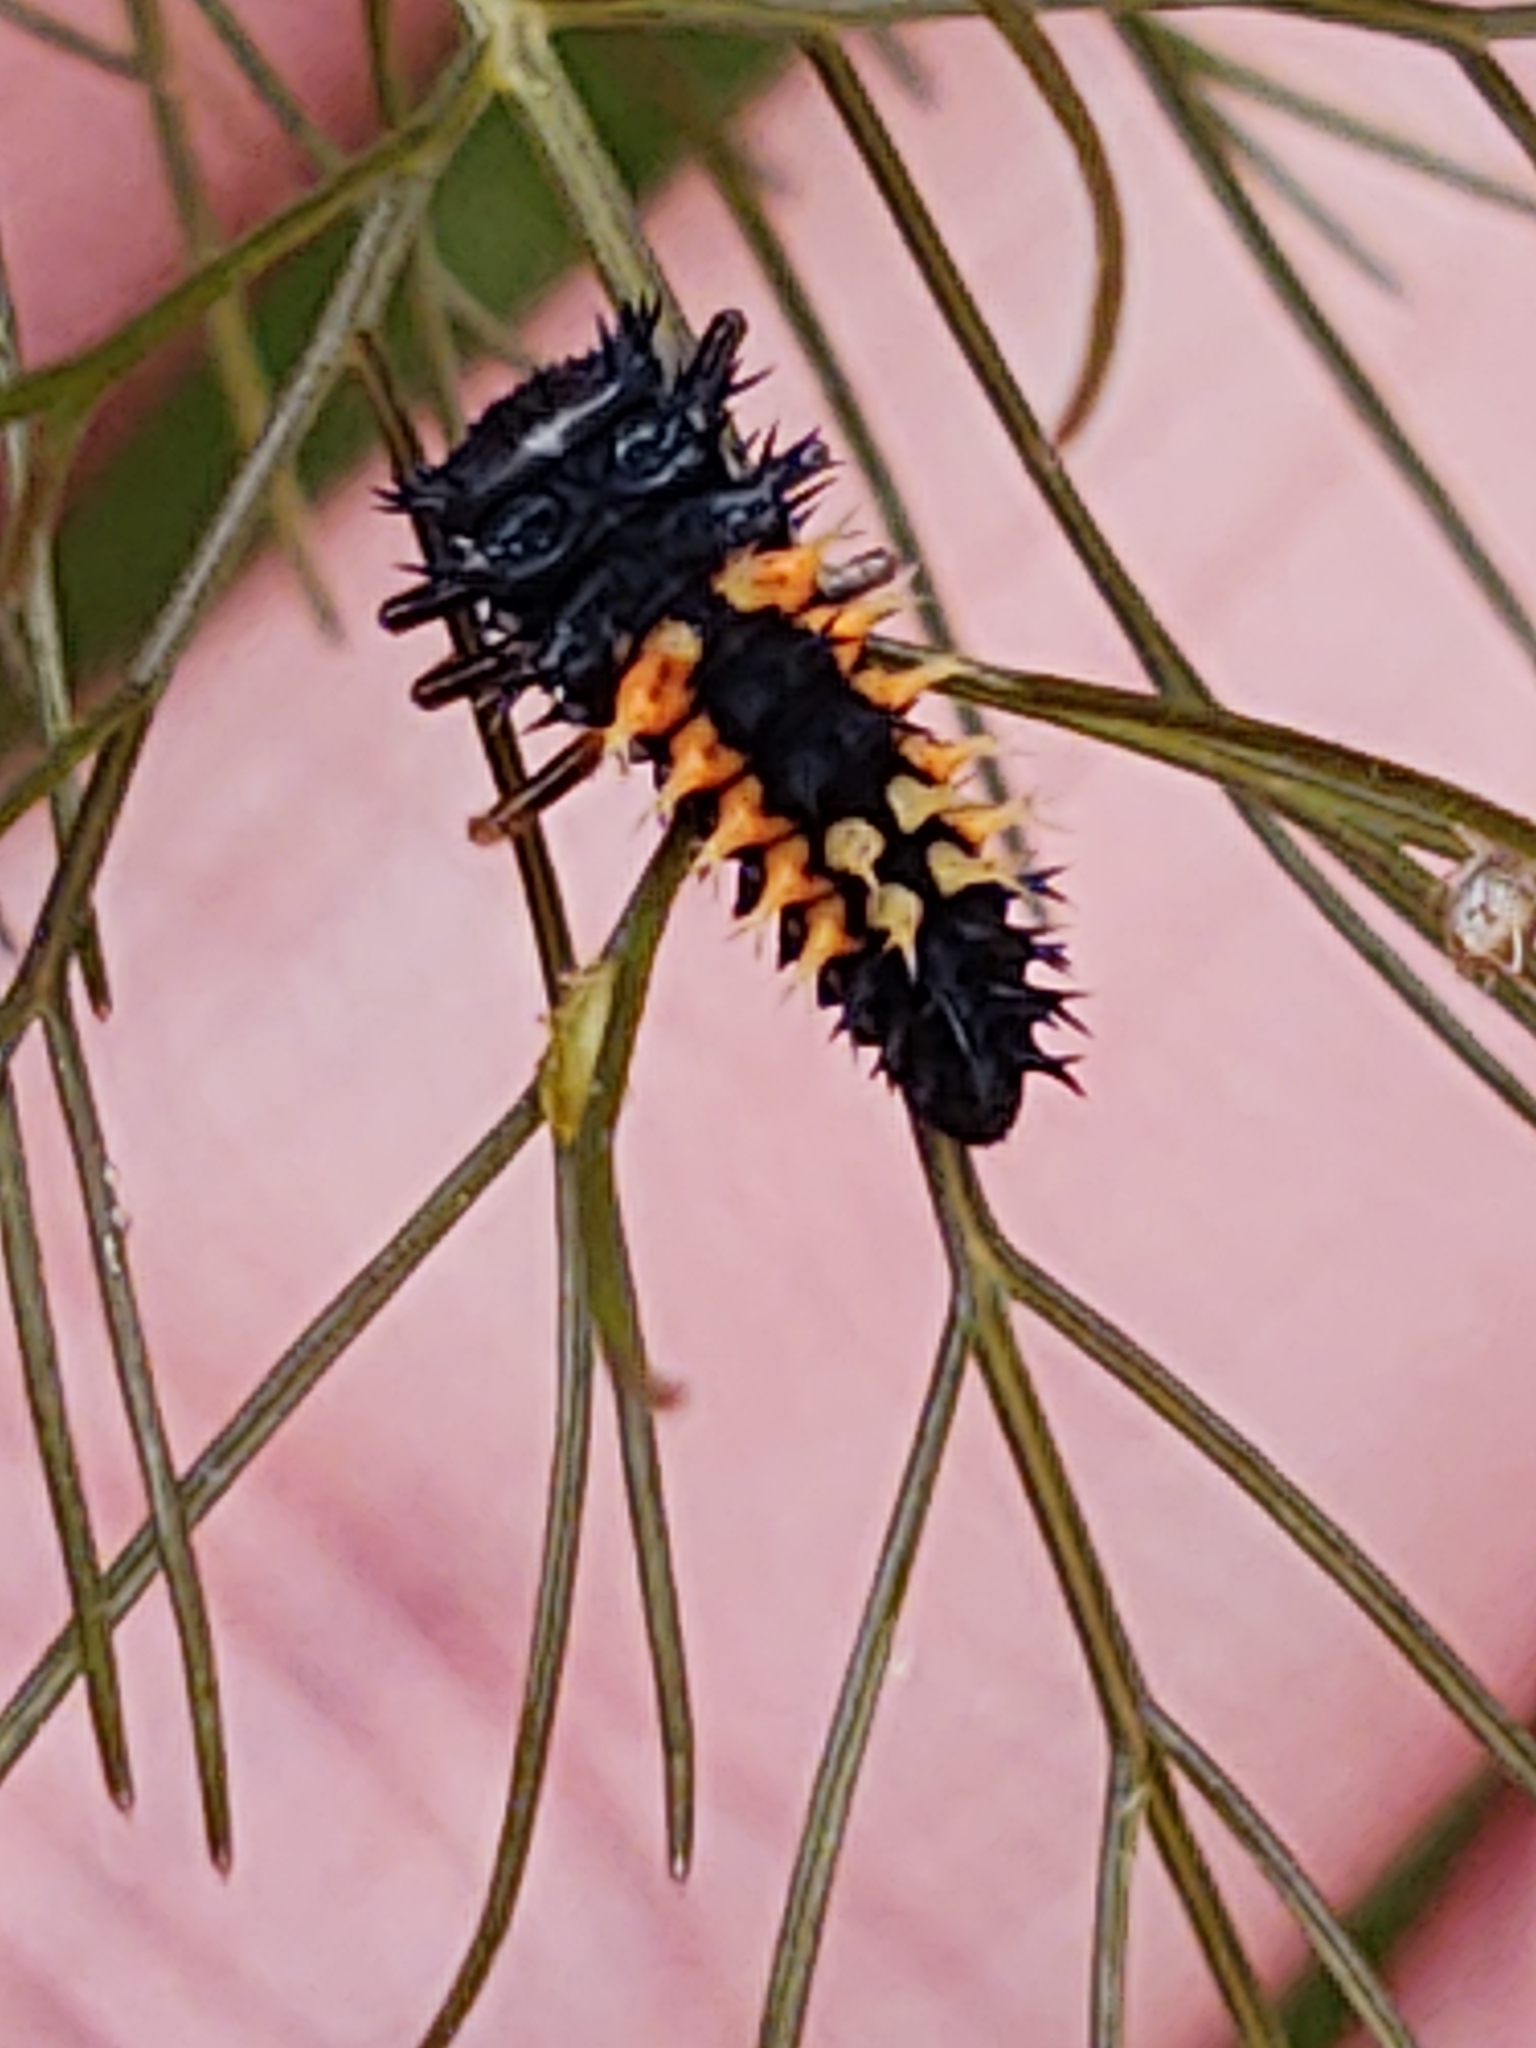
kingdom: Animalia
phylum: Arthropoda
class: Insecta
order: Coleoptera
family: Coccinellidae
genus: Harmonia
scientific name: Harmonia axyridis
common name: Harlequin ladybird
